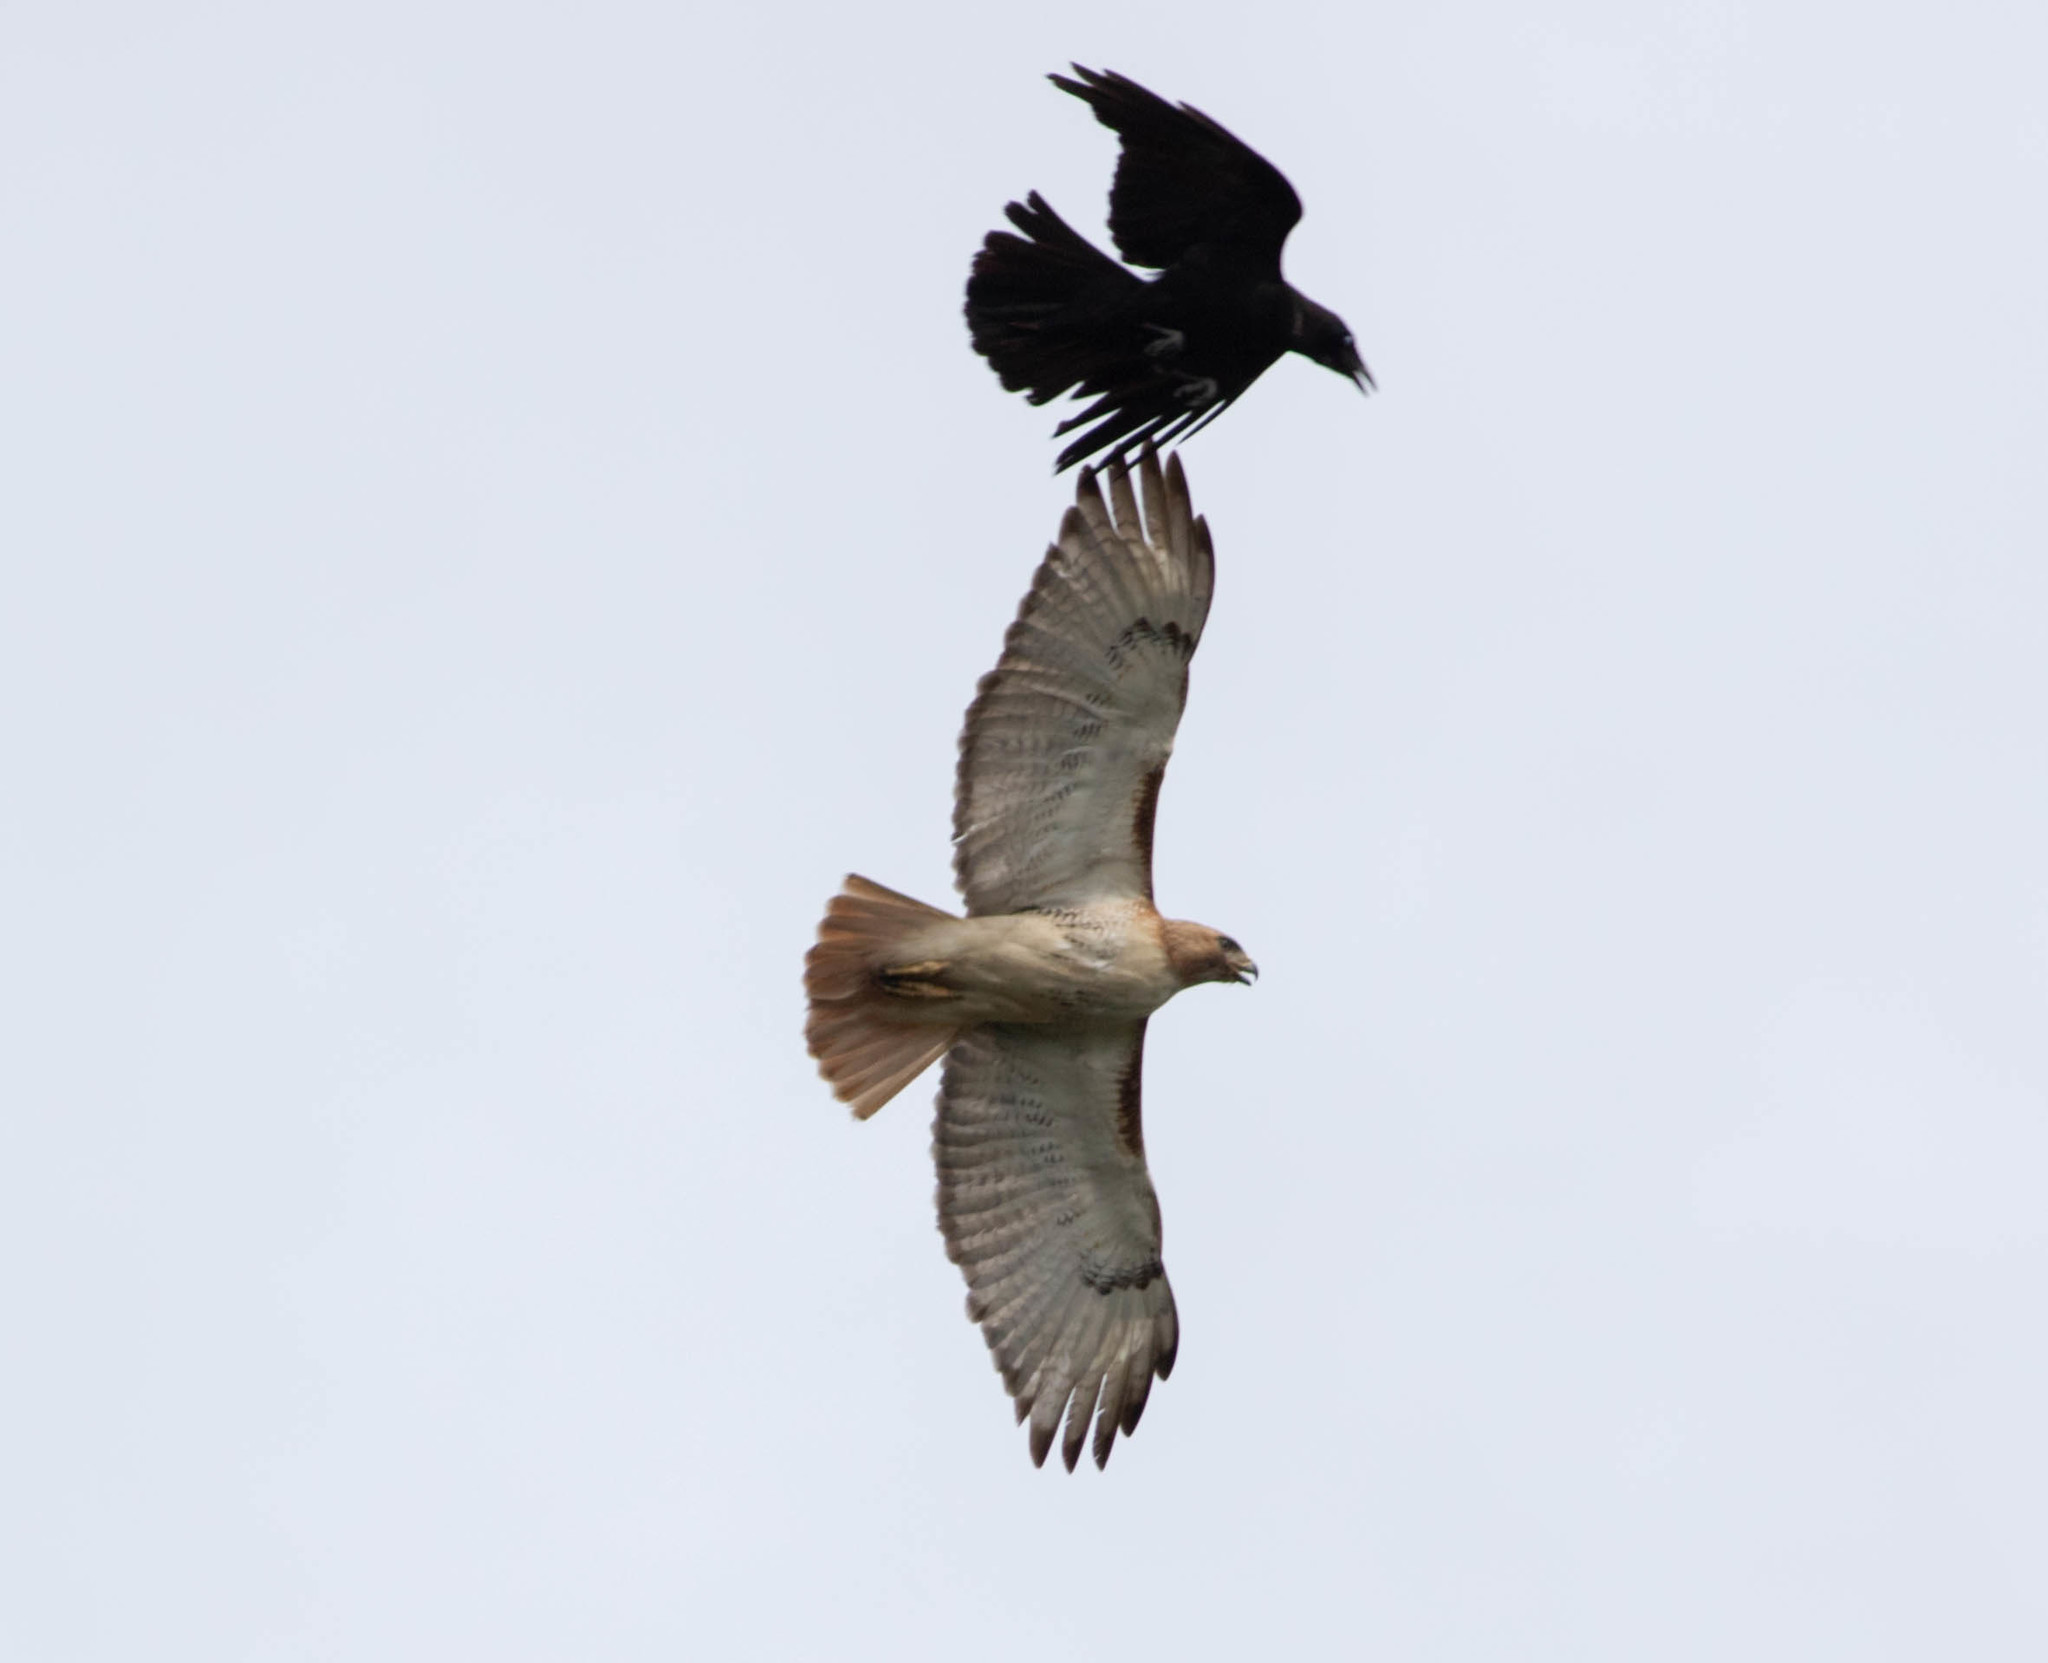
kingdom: Animalia
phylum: Chordata
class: Aves
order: Passeriformes
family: Corvidae
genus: Corvus
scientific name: Corvus brachyrhynchos
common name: American crow
